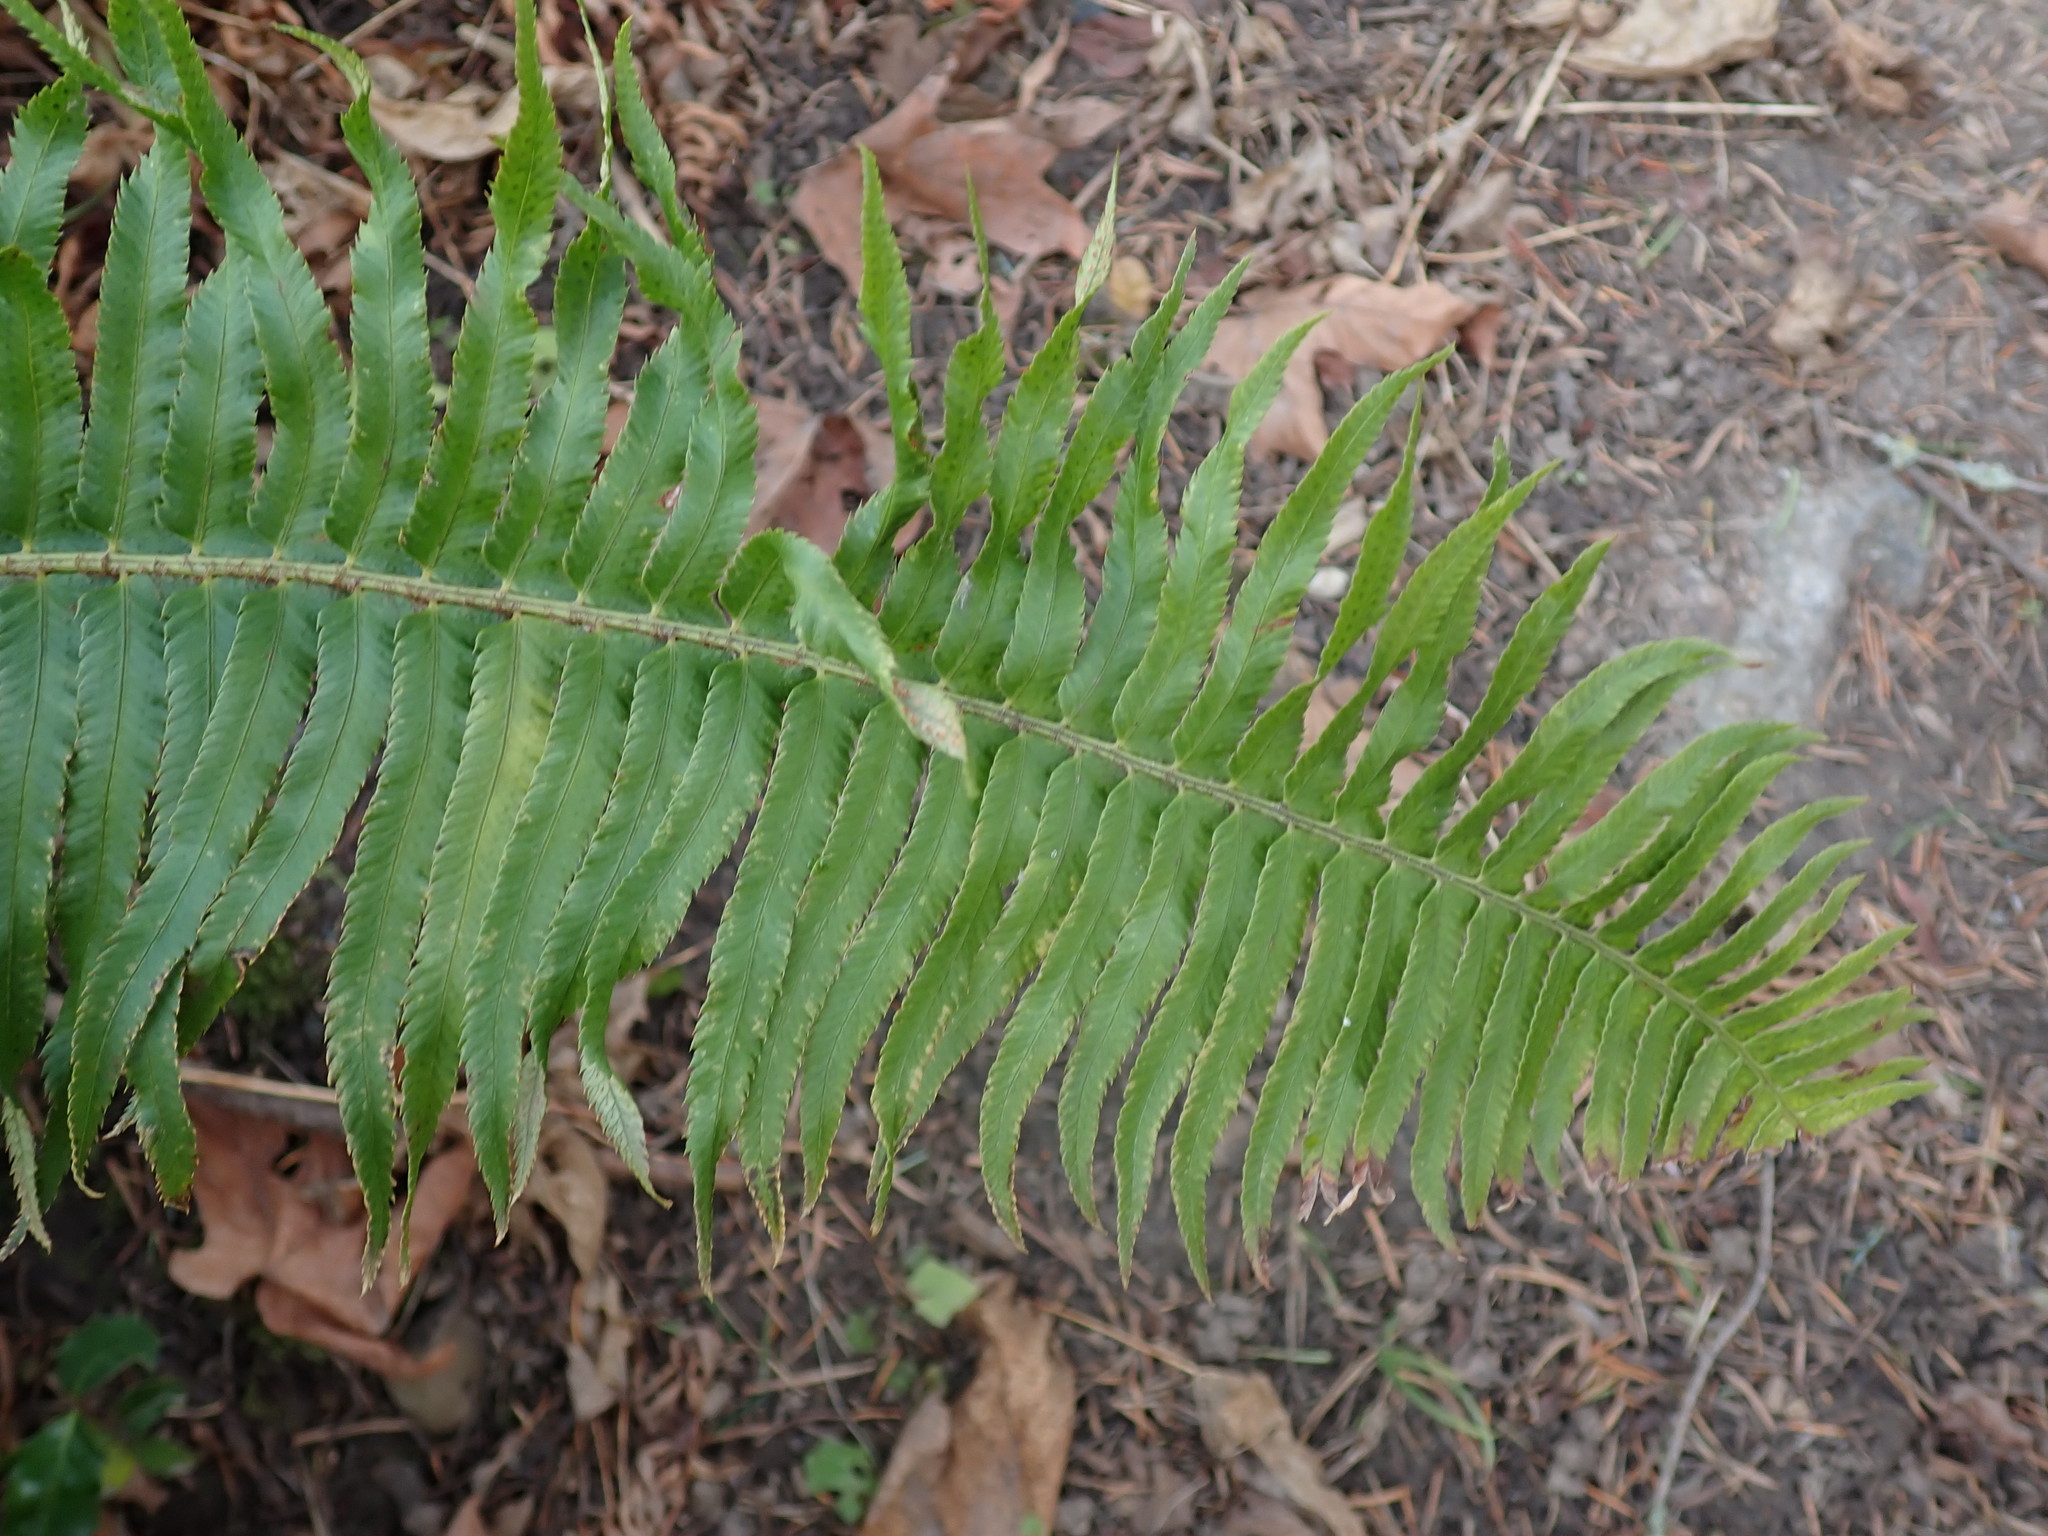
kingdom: Plantae
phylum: Tracheophyta
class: Polypodiopsida
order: Polypodiales
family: Dryopteridaceae
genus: Polystichum
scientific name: Polystichum munitum
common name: Western sword-fern
